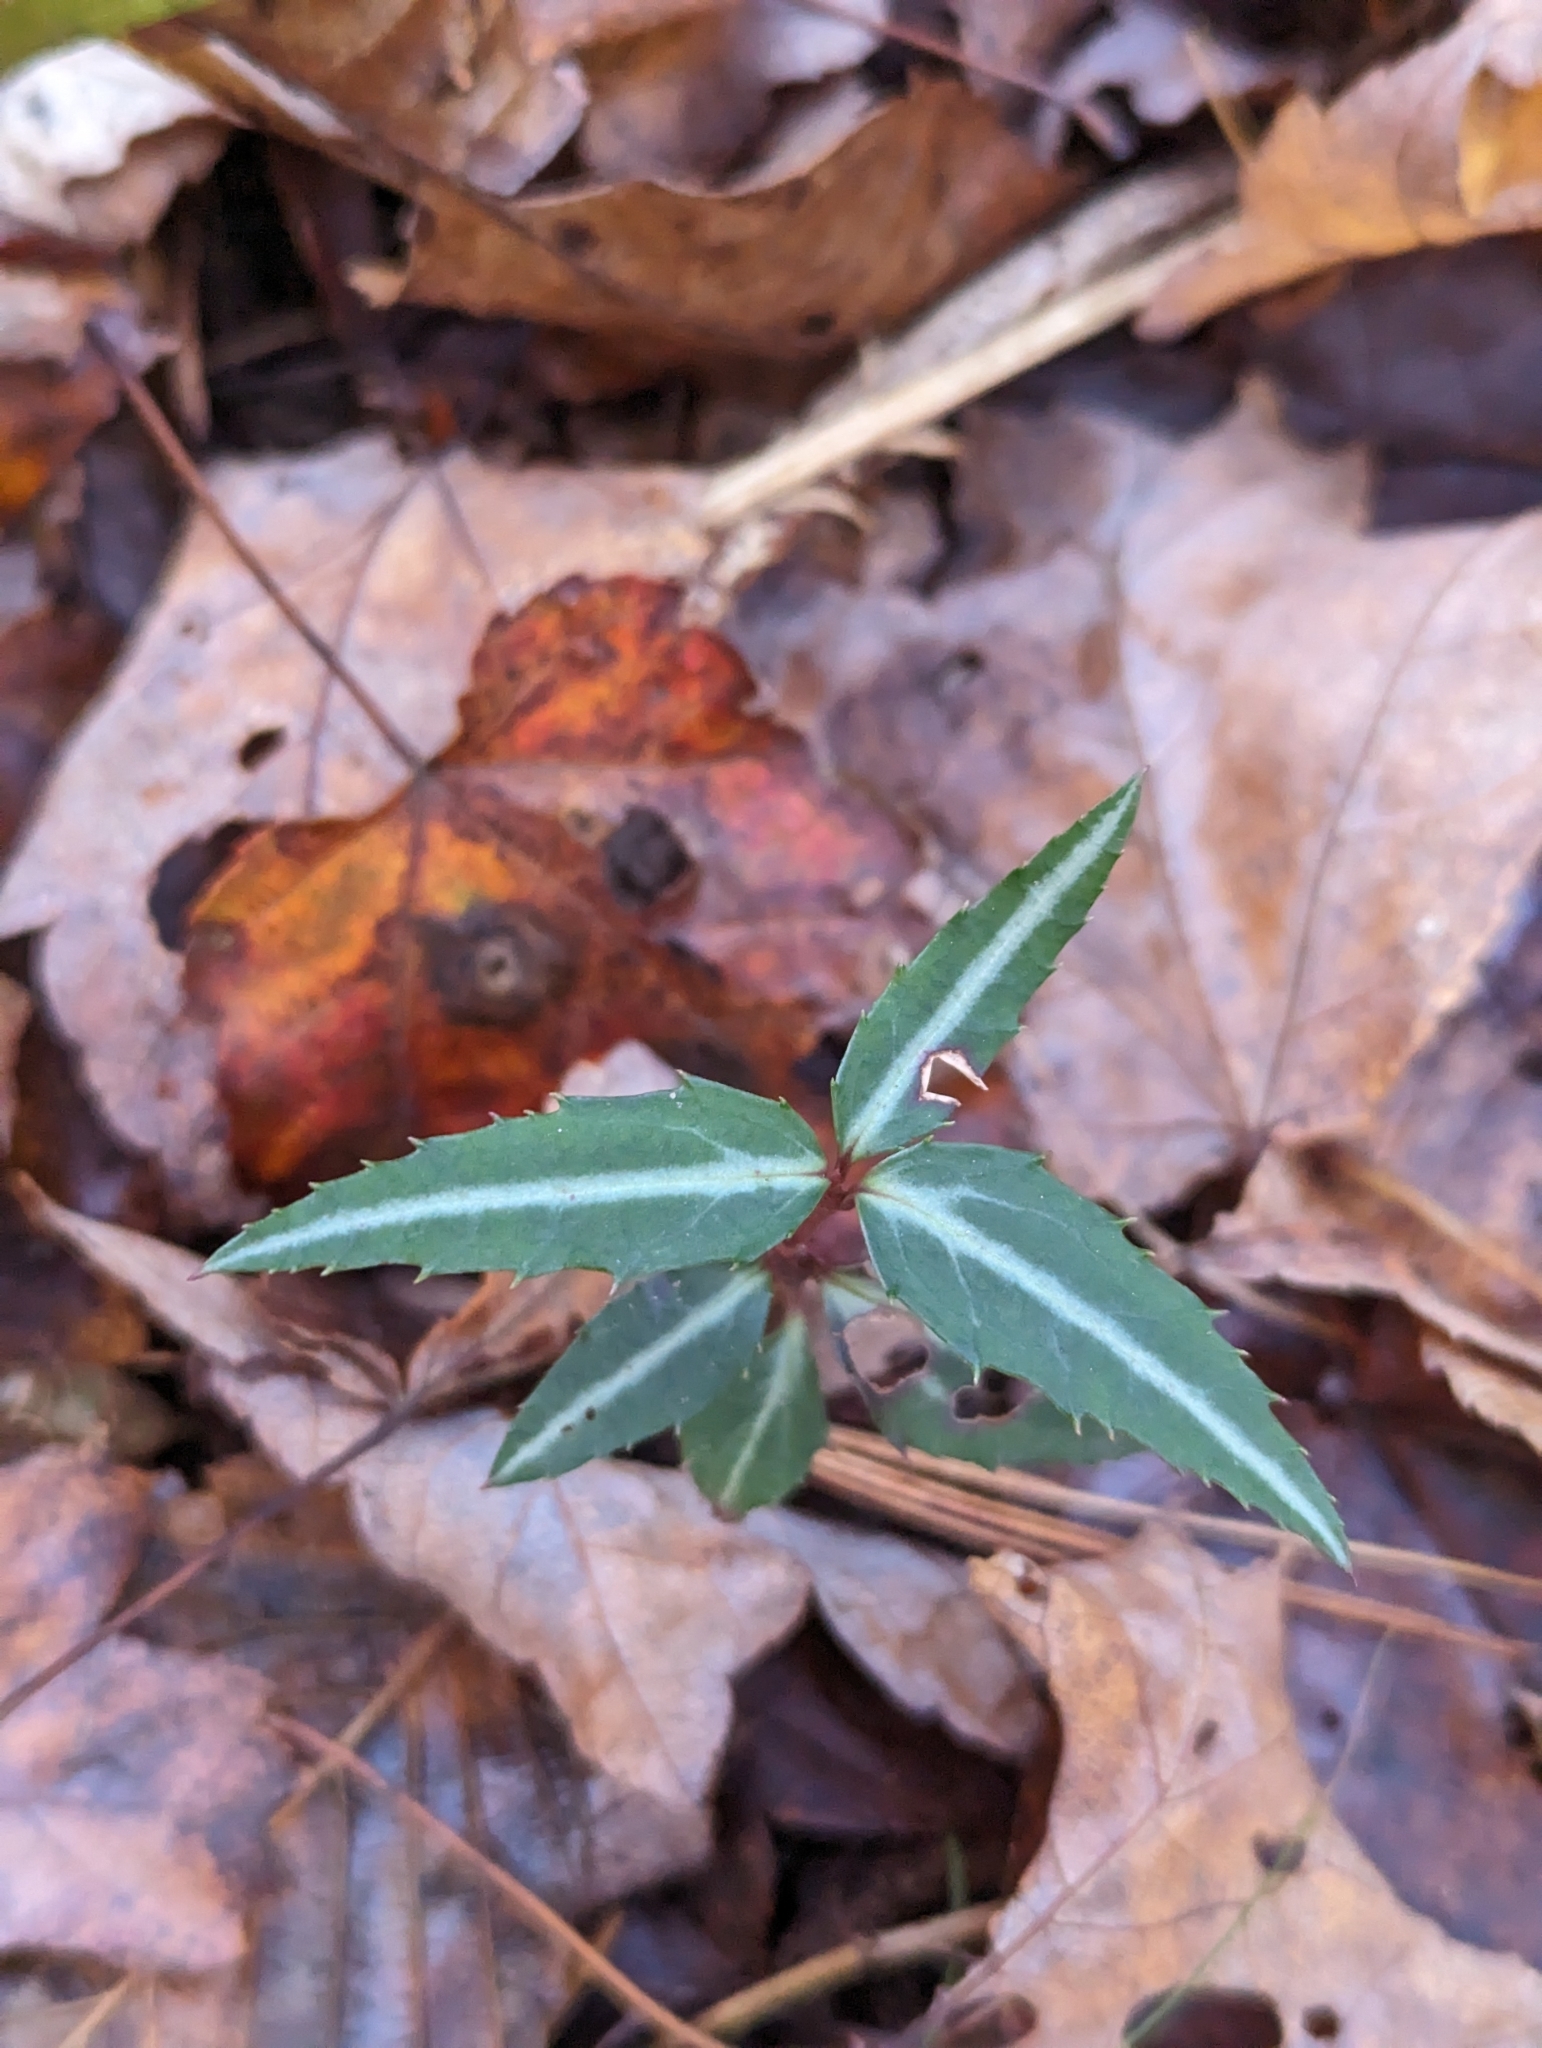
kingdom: Plantae
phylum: Tracheophyta
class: Magnoliopsida
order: Ericales
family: Ericaceae
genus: Chimaphila
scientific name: Chimaphila maculata
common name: Spotted pipsissewa
